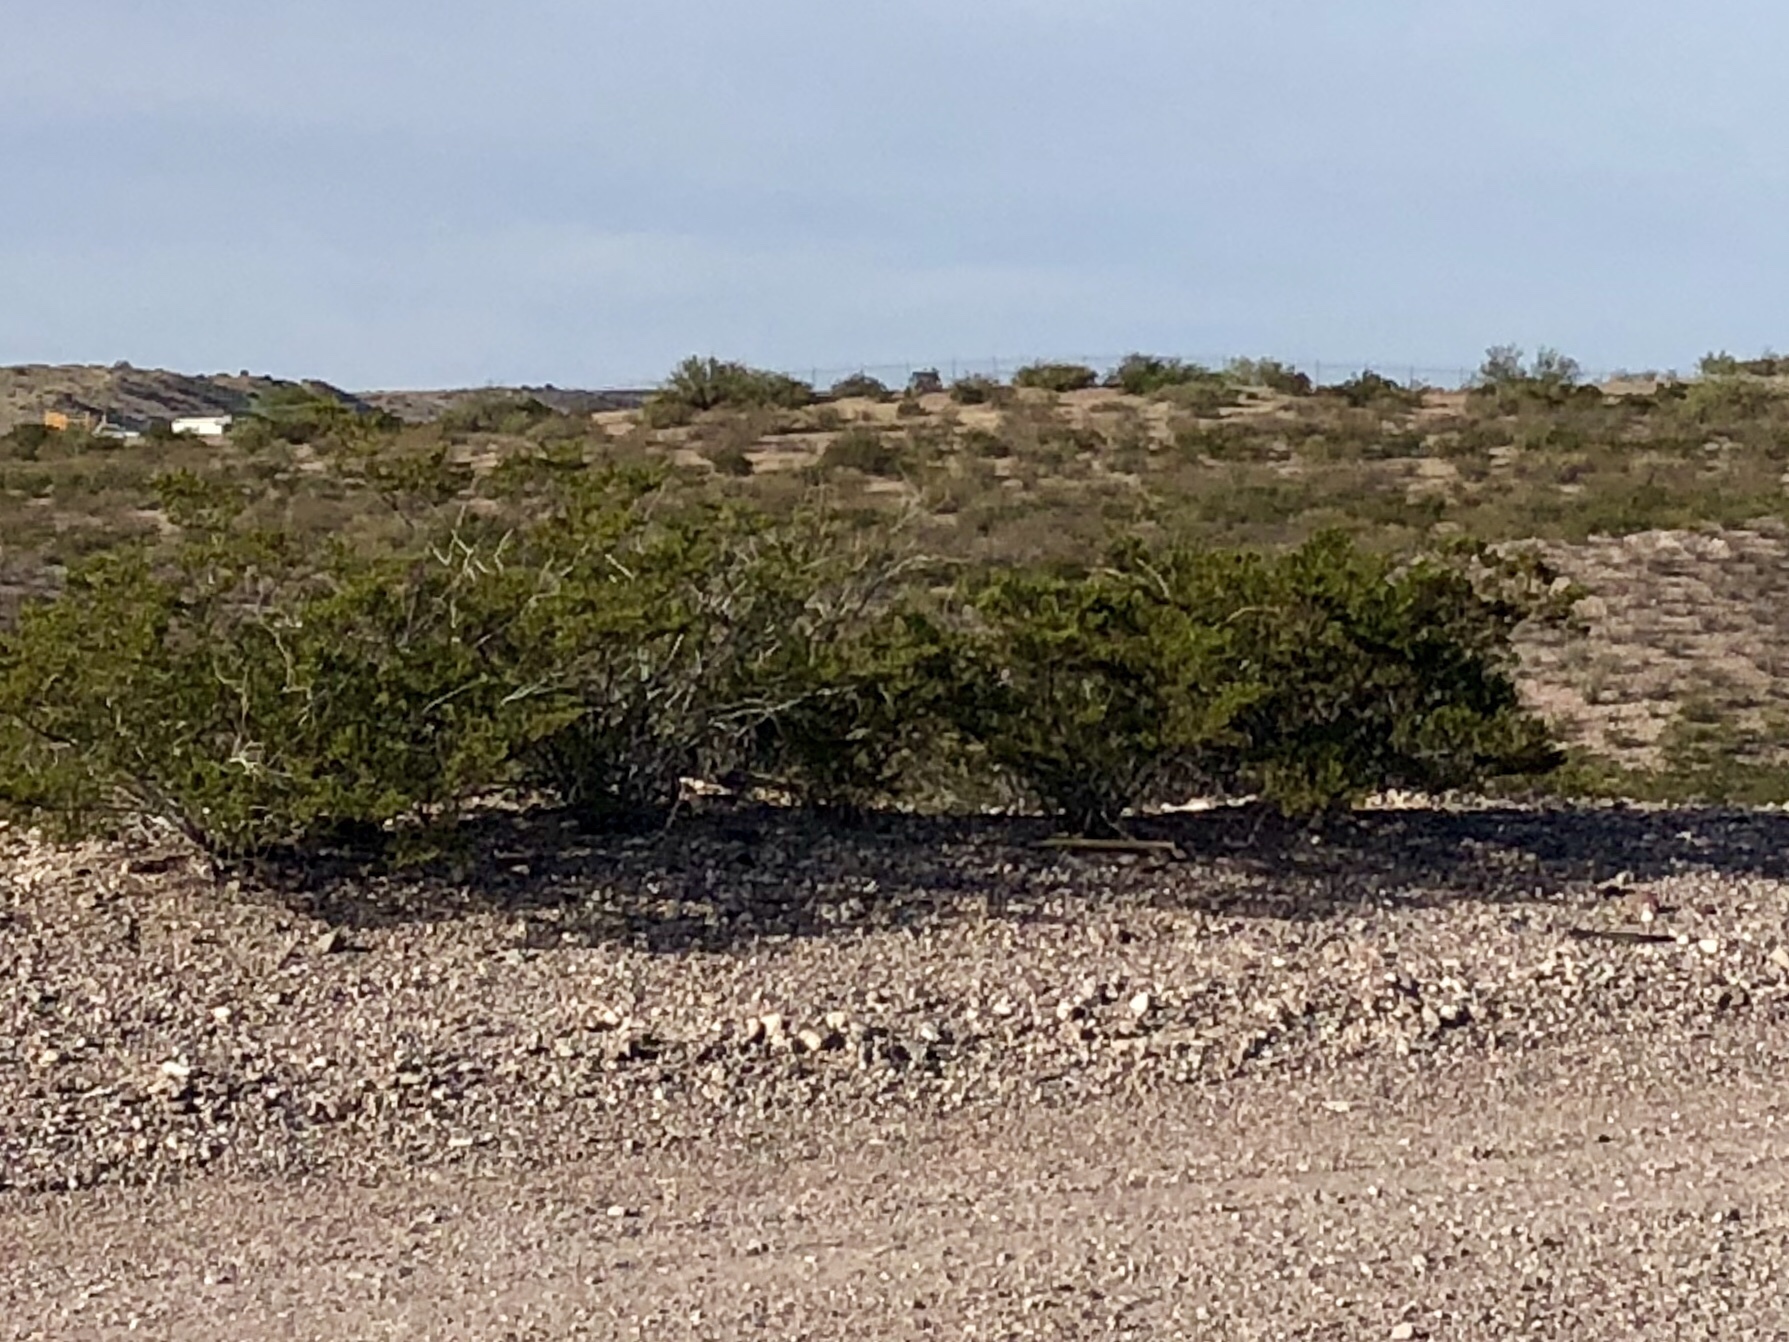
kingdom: Plantae
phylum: Tracheophyta
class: Magnoliopsida
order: Zygophyllales
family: Zygophyllaceae
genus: Larrea
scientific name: Larrea tridentata
